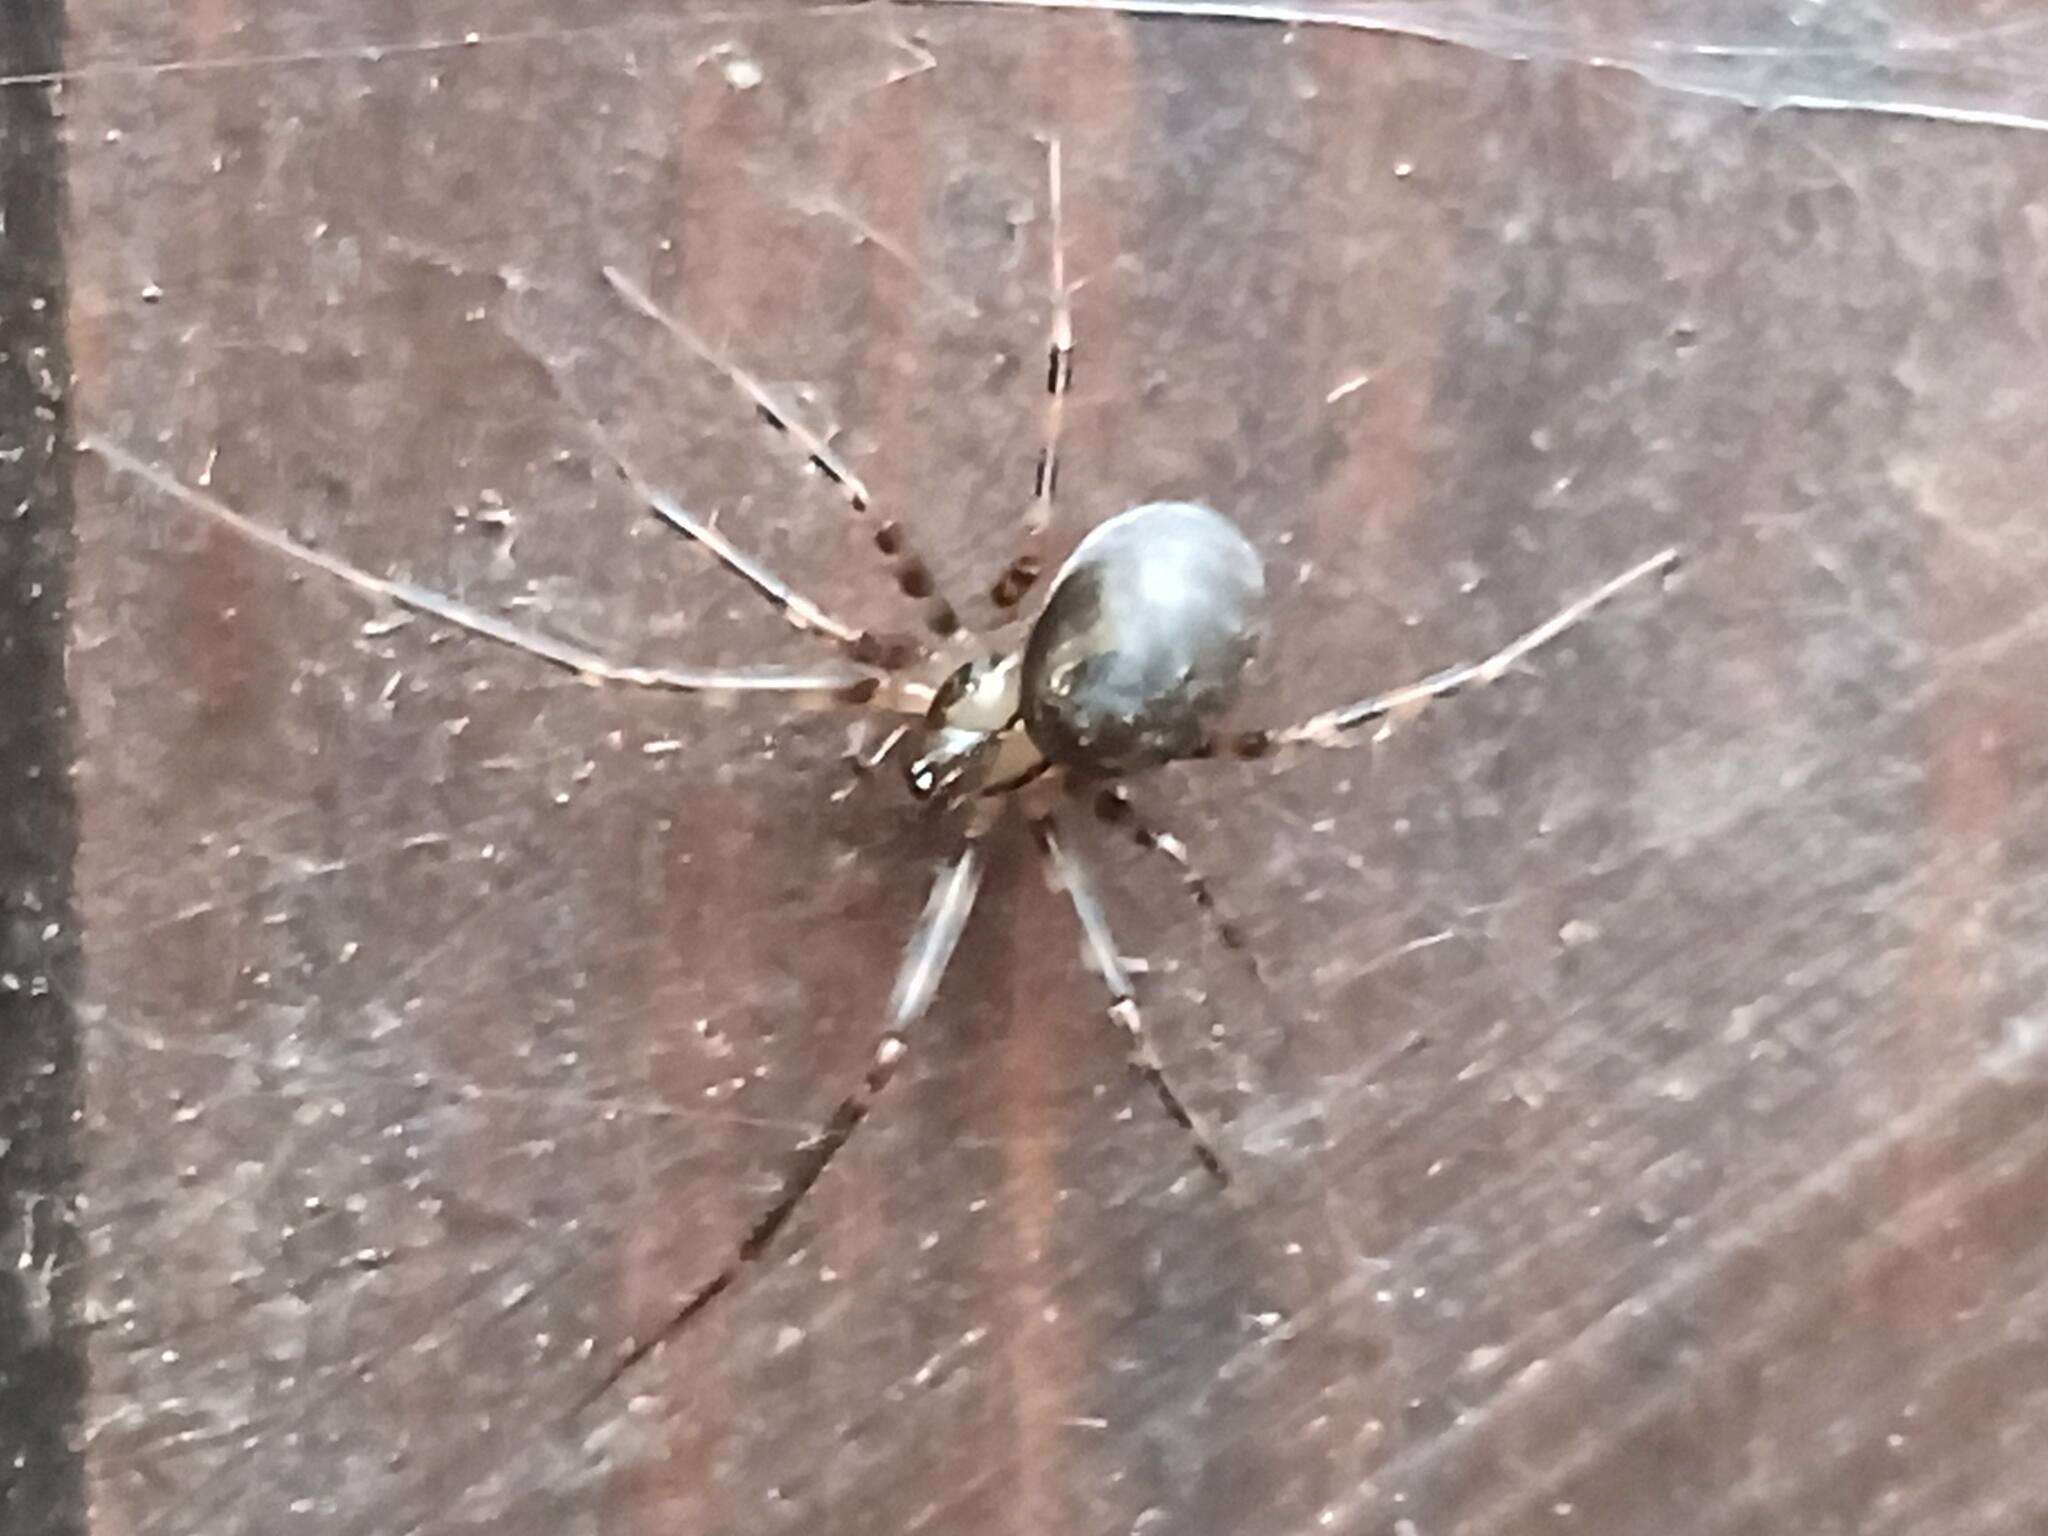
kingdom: Animalia
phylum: Arthropoda
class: Arachnida
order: Araneae
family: Linyphiidae
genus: Labulla
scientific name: Labulla flahaulti
